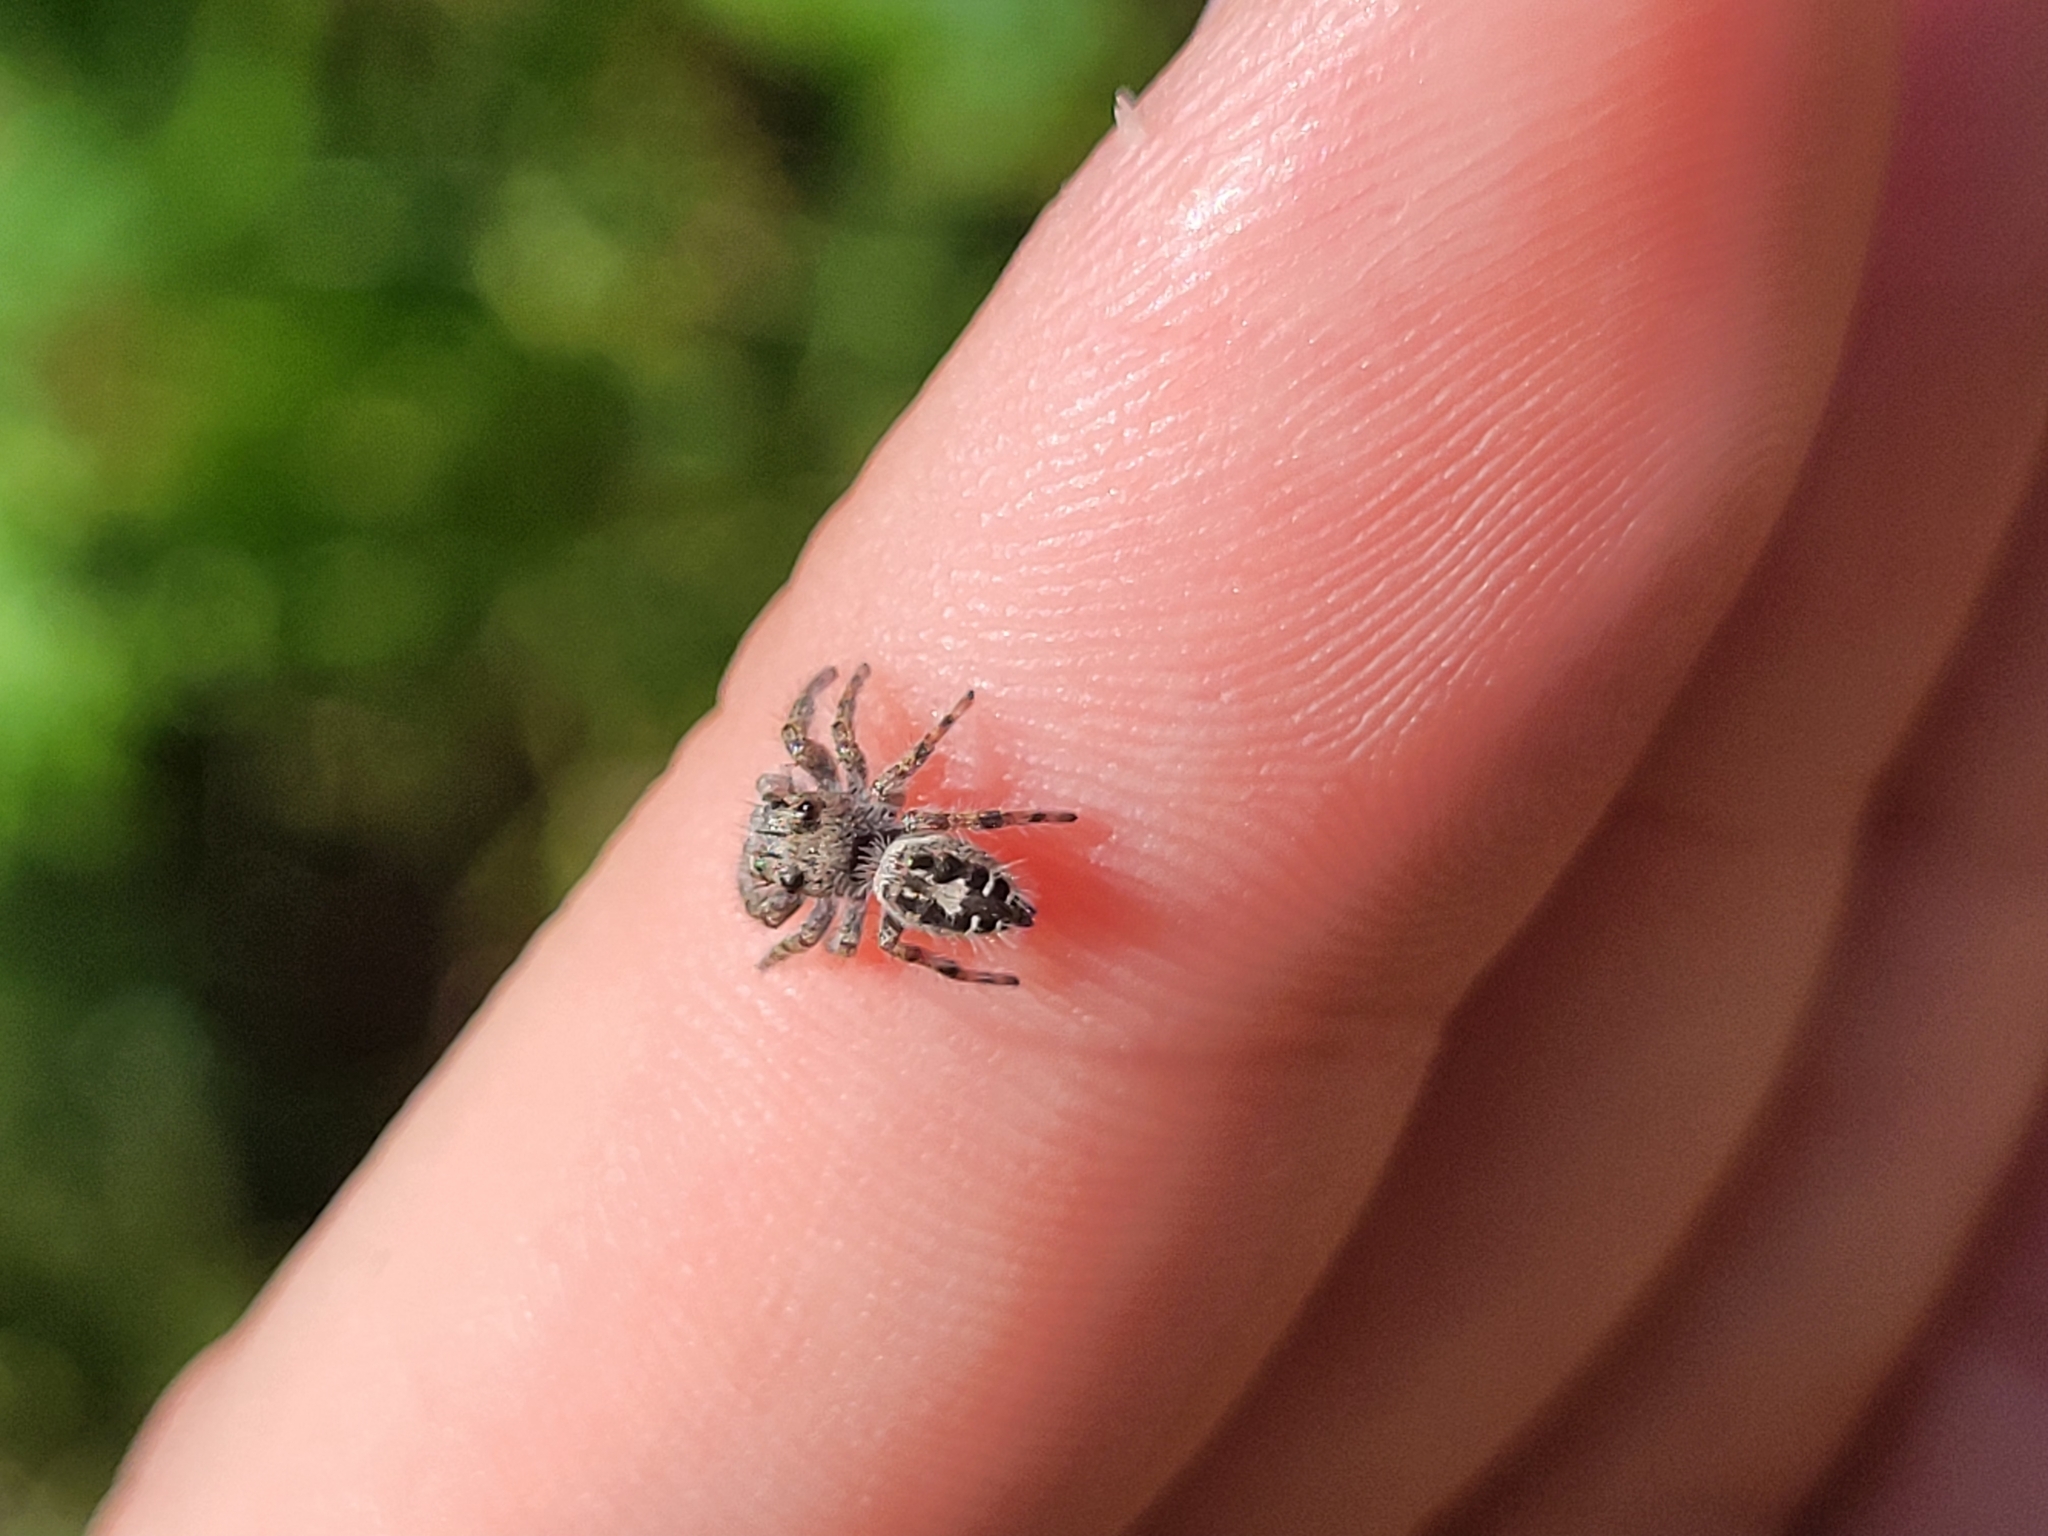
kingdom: Animalia
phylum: Arthropoda
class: Arachnida
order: Araneae
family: Salticidae
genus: Phidippus
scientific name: Phidippus putnami
